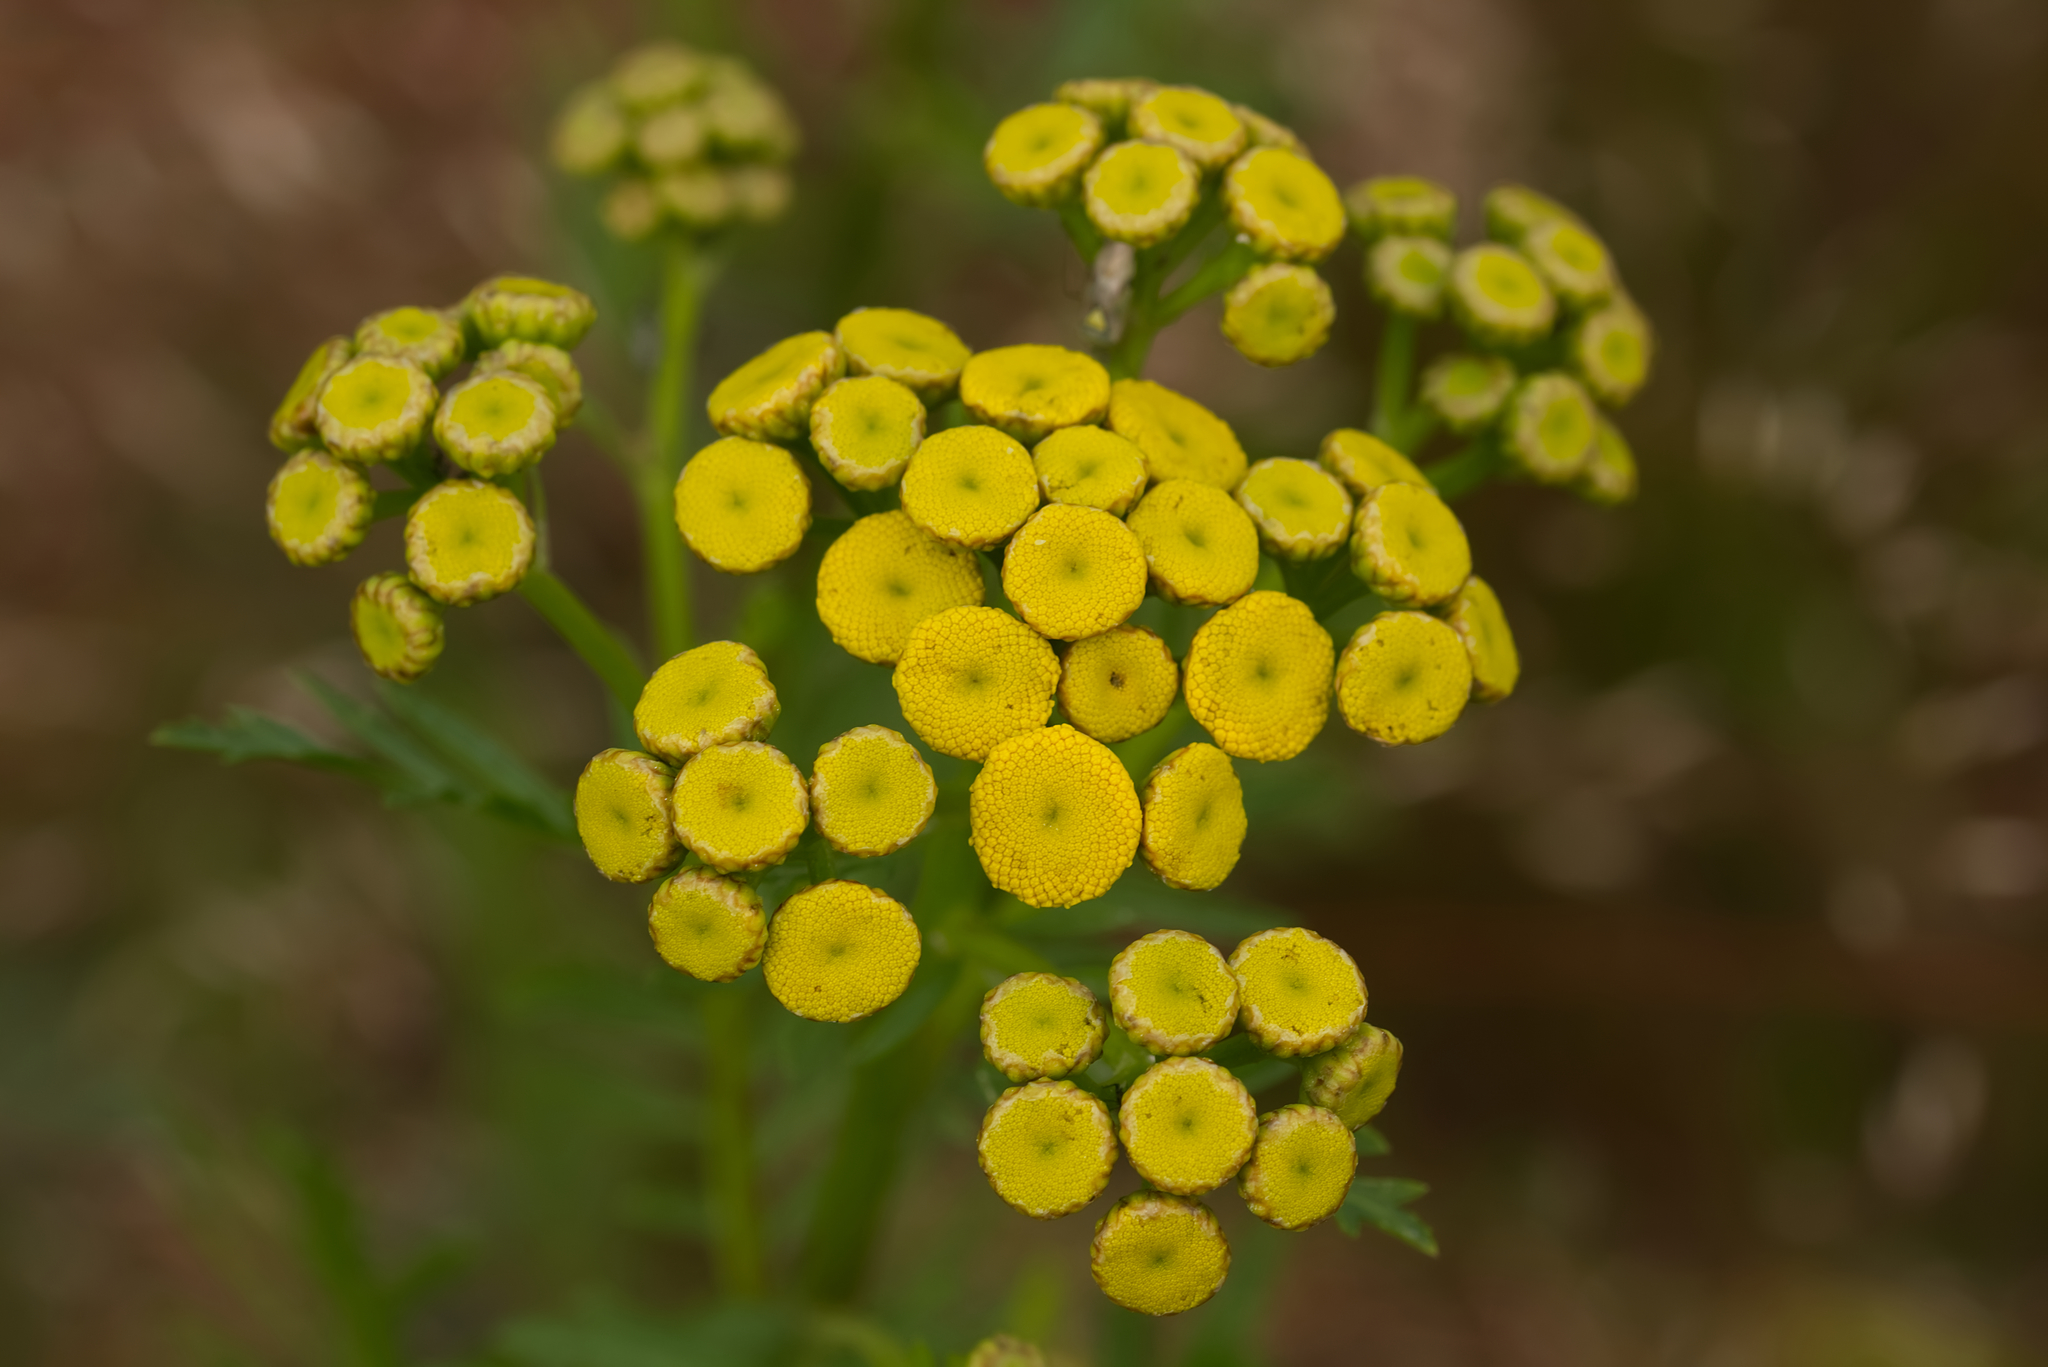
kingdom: Plantae
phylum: Tracheophyta
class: Magnoliopsida
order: Asterales
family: Asteraceae
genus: Tanacetum
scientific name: Tanacetum vulgare
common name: Common tansy
